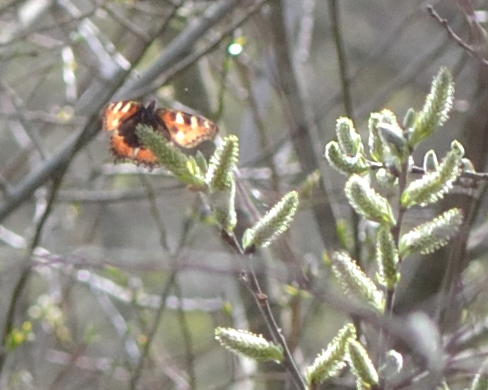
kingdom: Animalia
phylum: Arthropoda
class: Insecta
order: Lepidoptera
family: Nymphalidae
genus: Aglais
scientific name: Aglais urticae
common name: Small tortoiseshell
